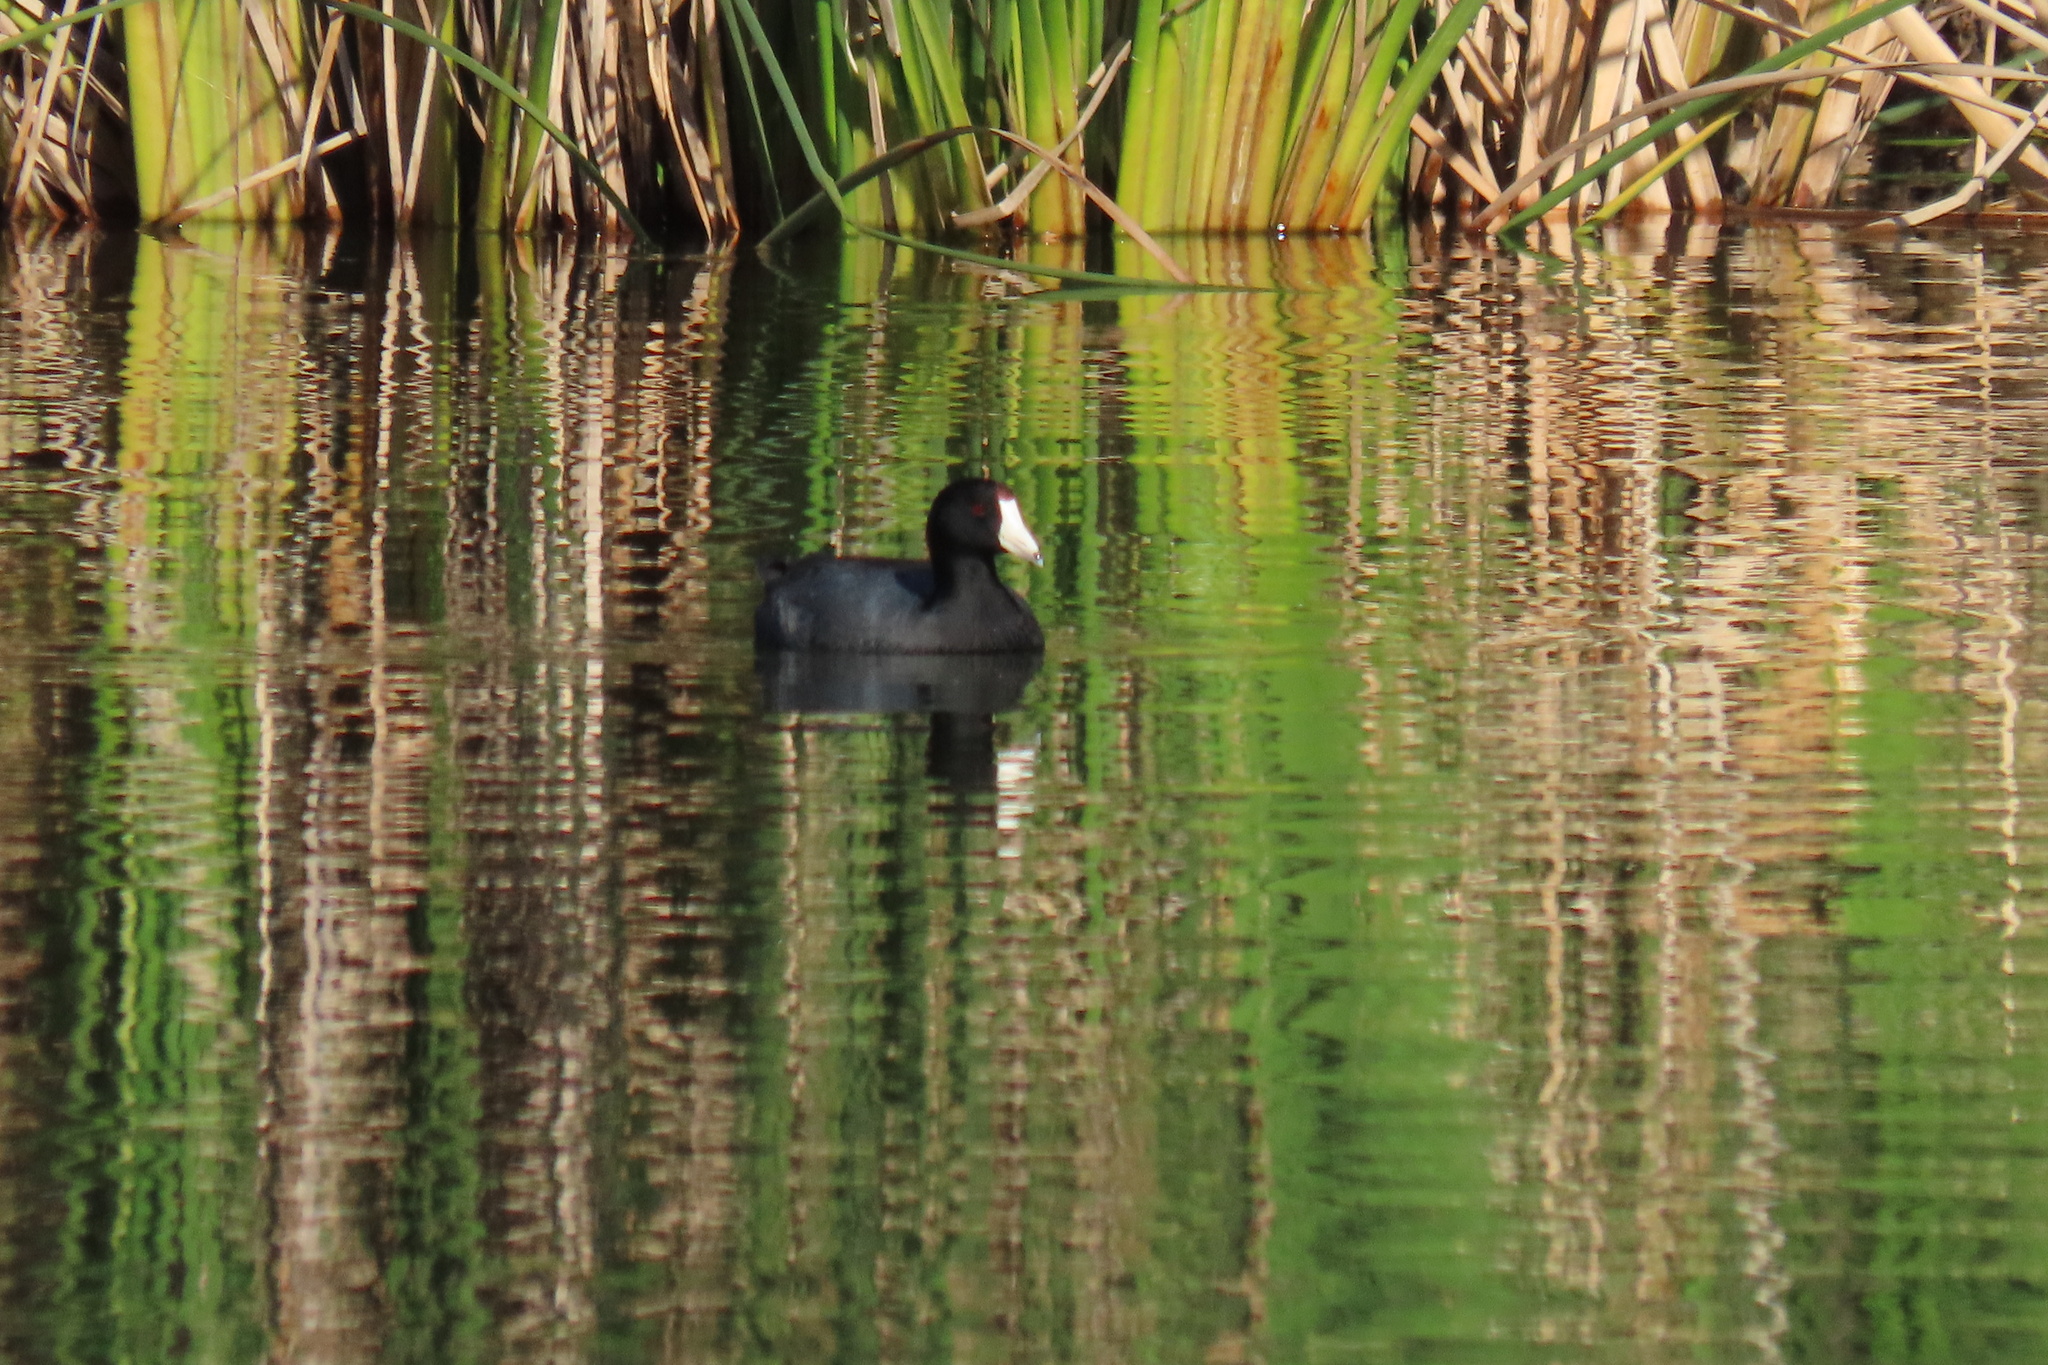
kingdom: Animalia
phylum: Chordata
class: Aves
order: Gruiformes
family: Rallidae
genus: Fulica
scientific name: Fulica americana
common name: American coot
